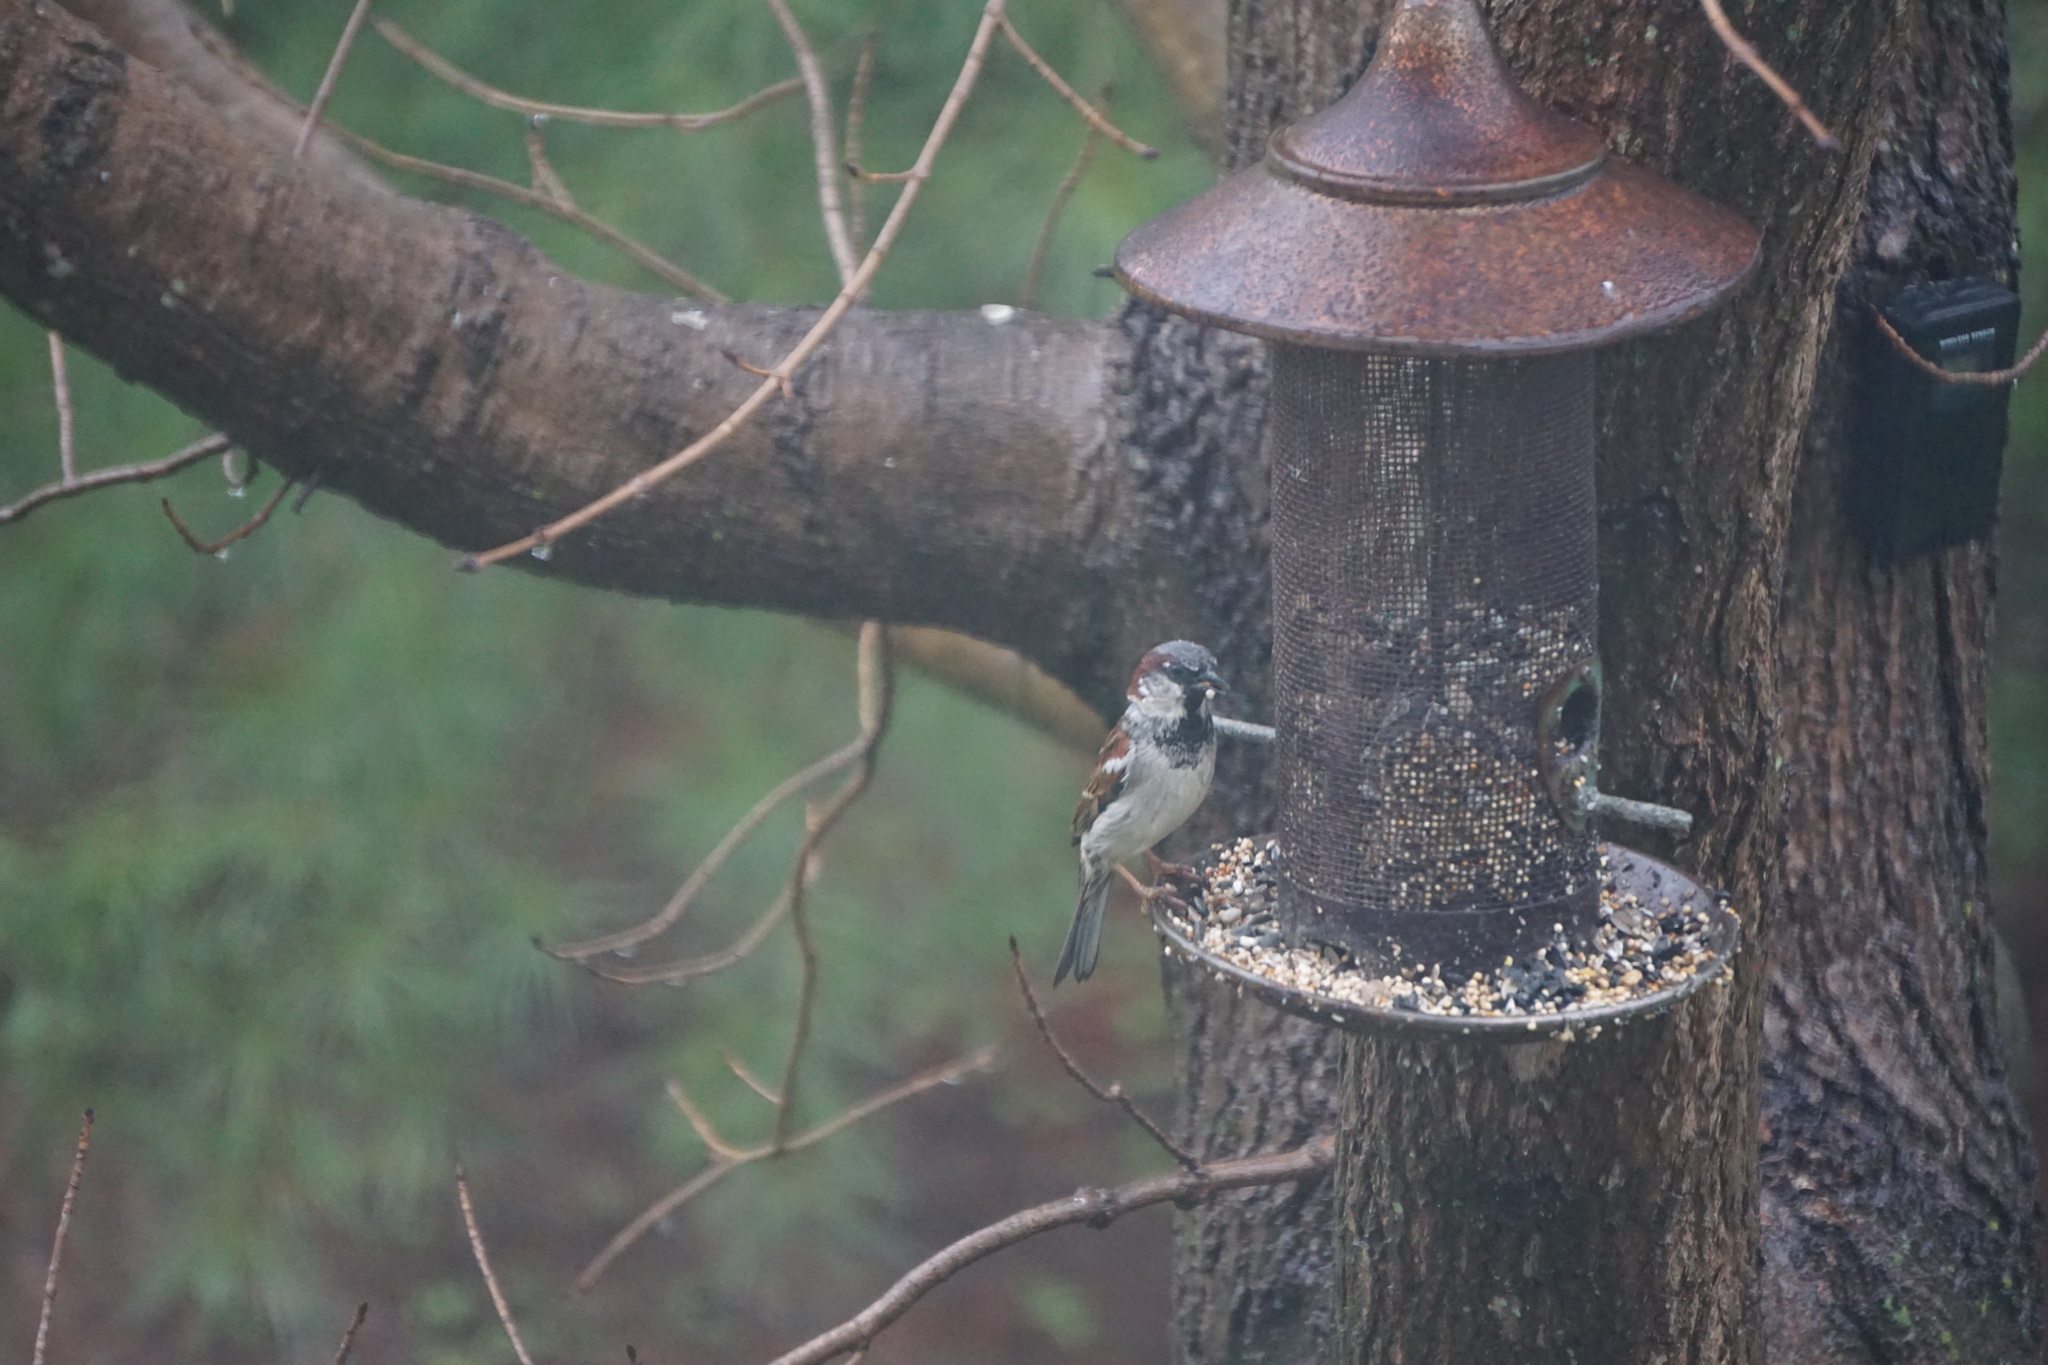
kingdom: Animalia
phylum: Chordata
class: Aves
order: Passeriformes
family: Passeridae
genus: Passer
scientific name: Passer domesticus
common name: House sparrow
